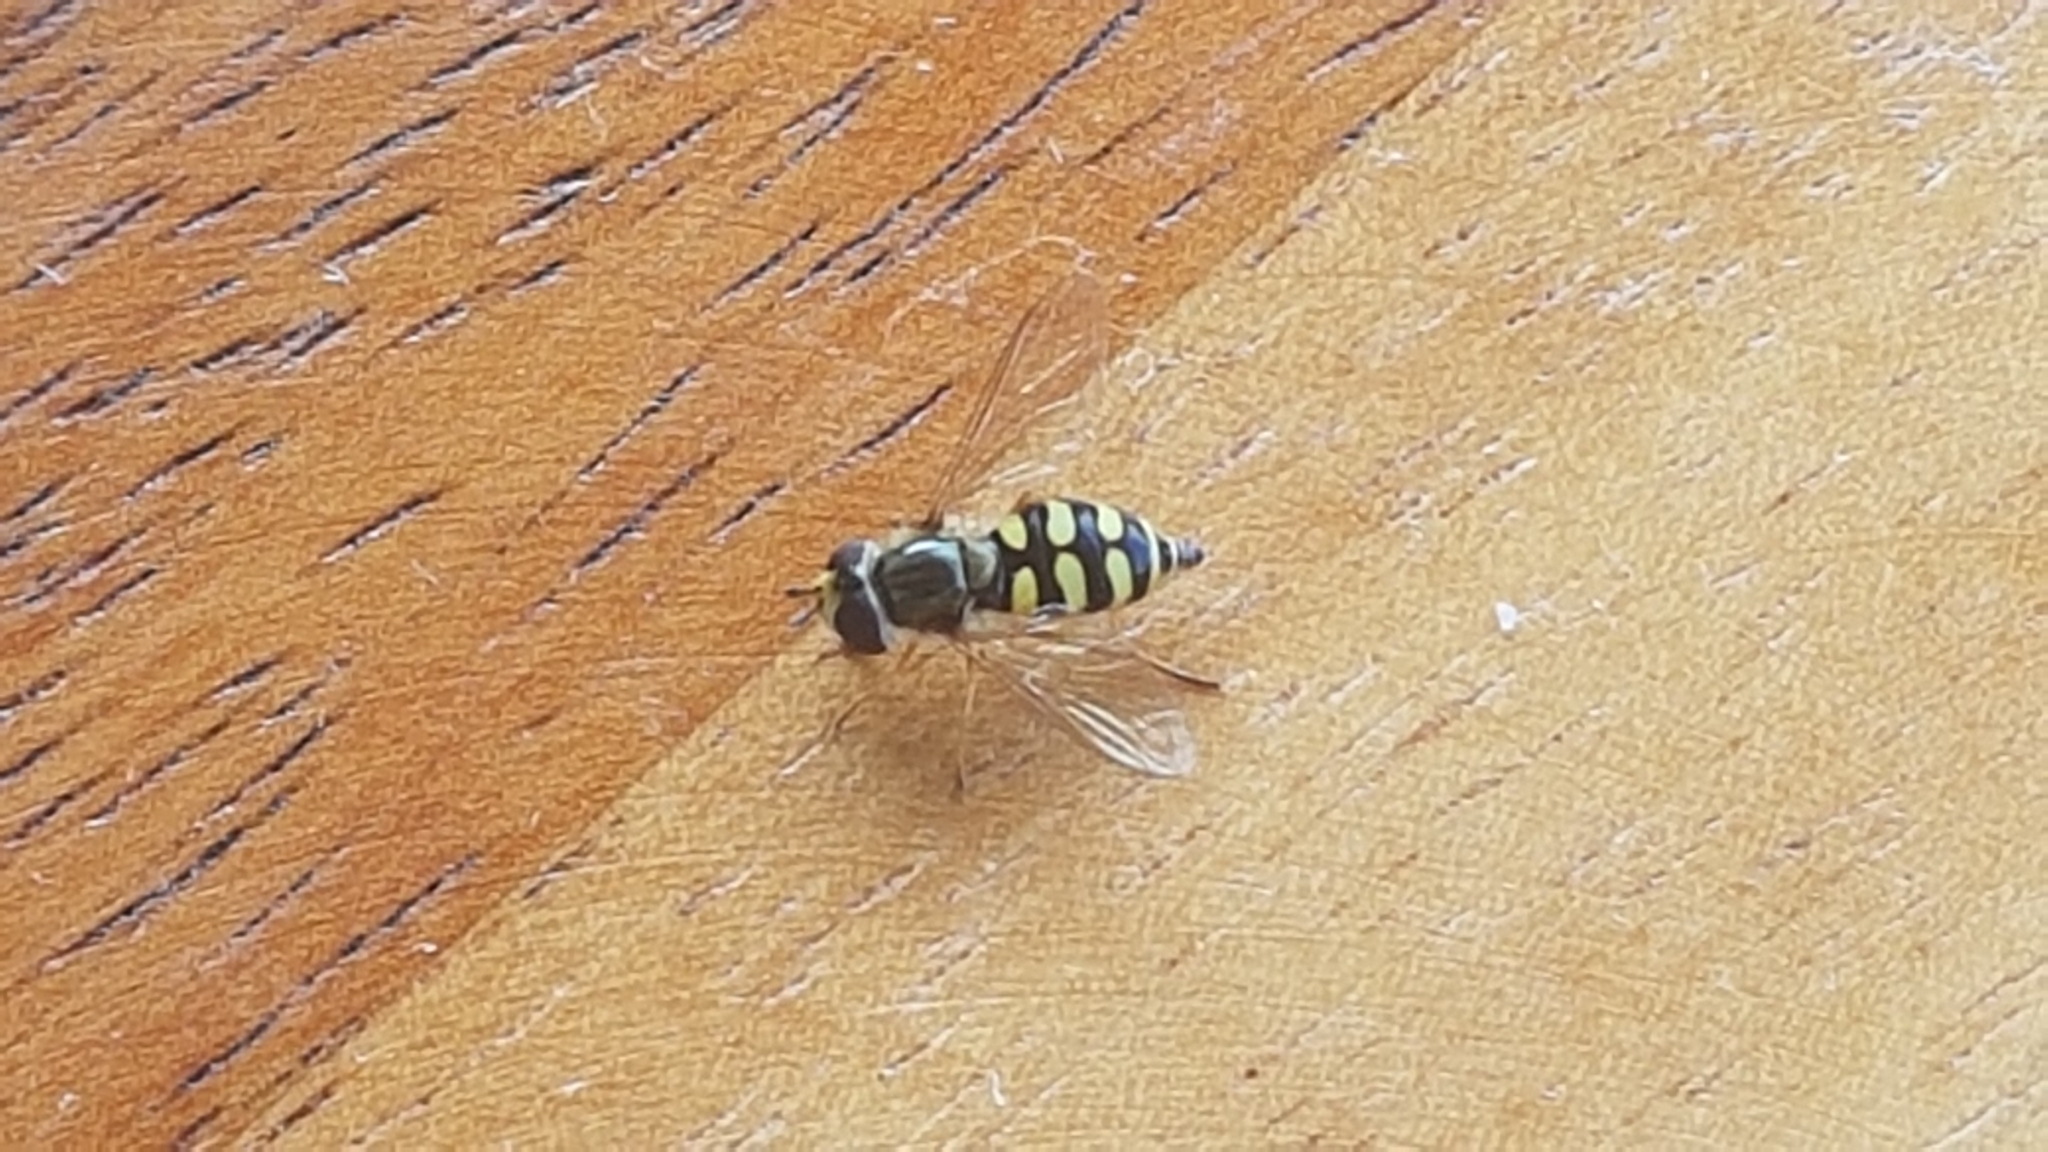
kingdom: Animalia
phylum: Arthropoda
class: Insecta
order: Diptera
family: Syrphidae
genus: Eupeodes
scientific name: Eupeodes corollae
